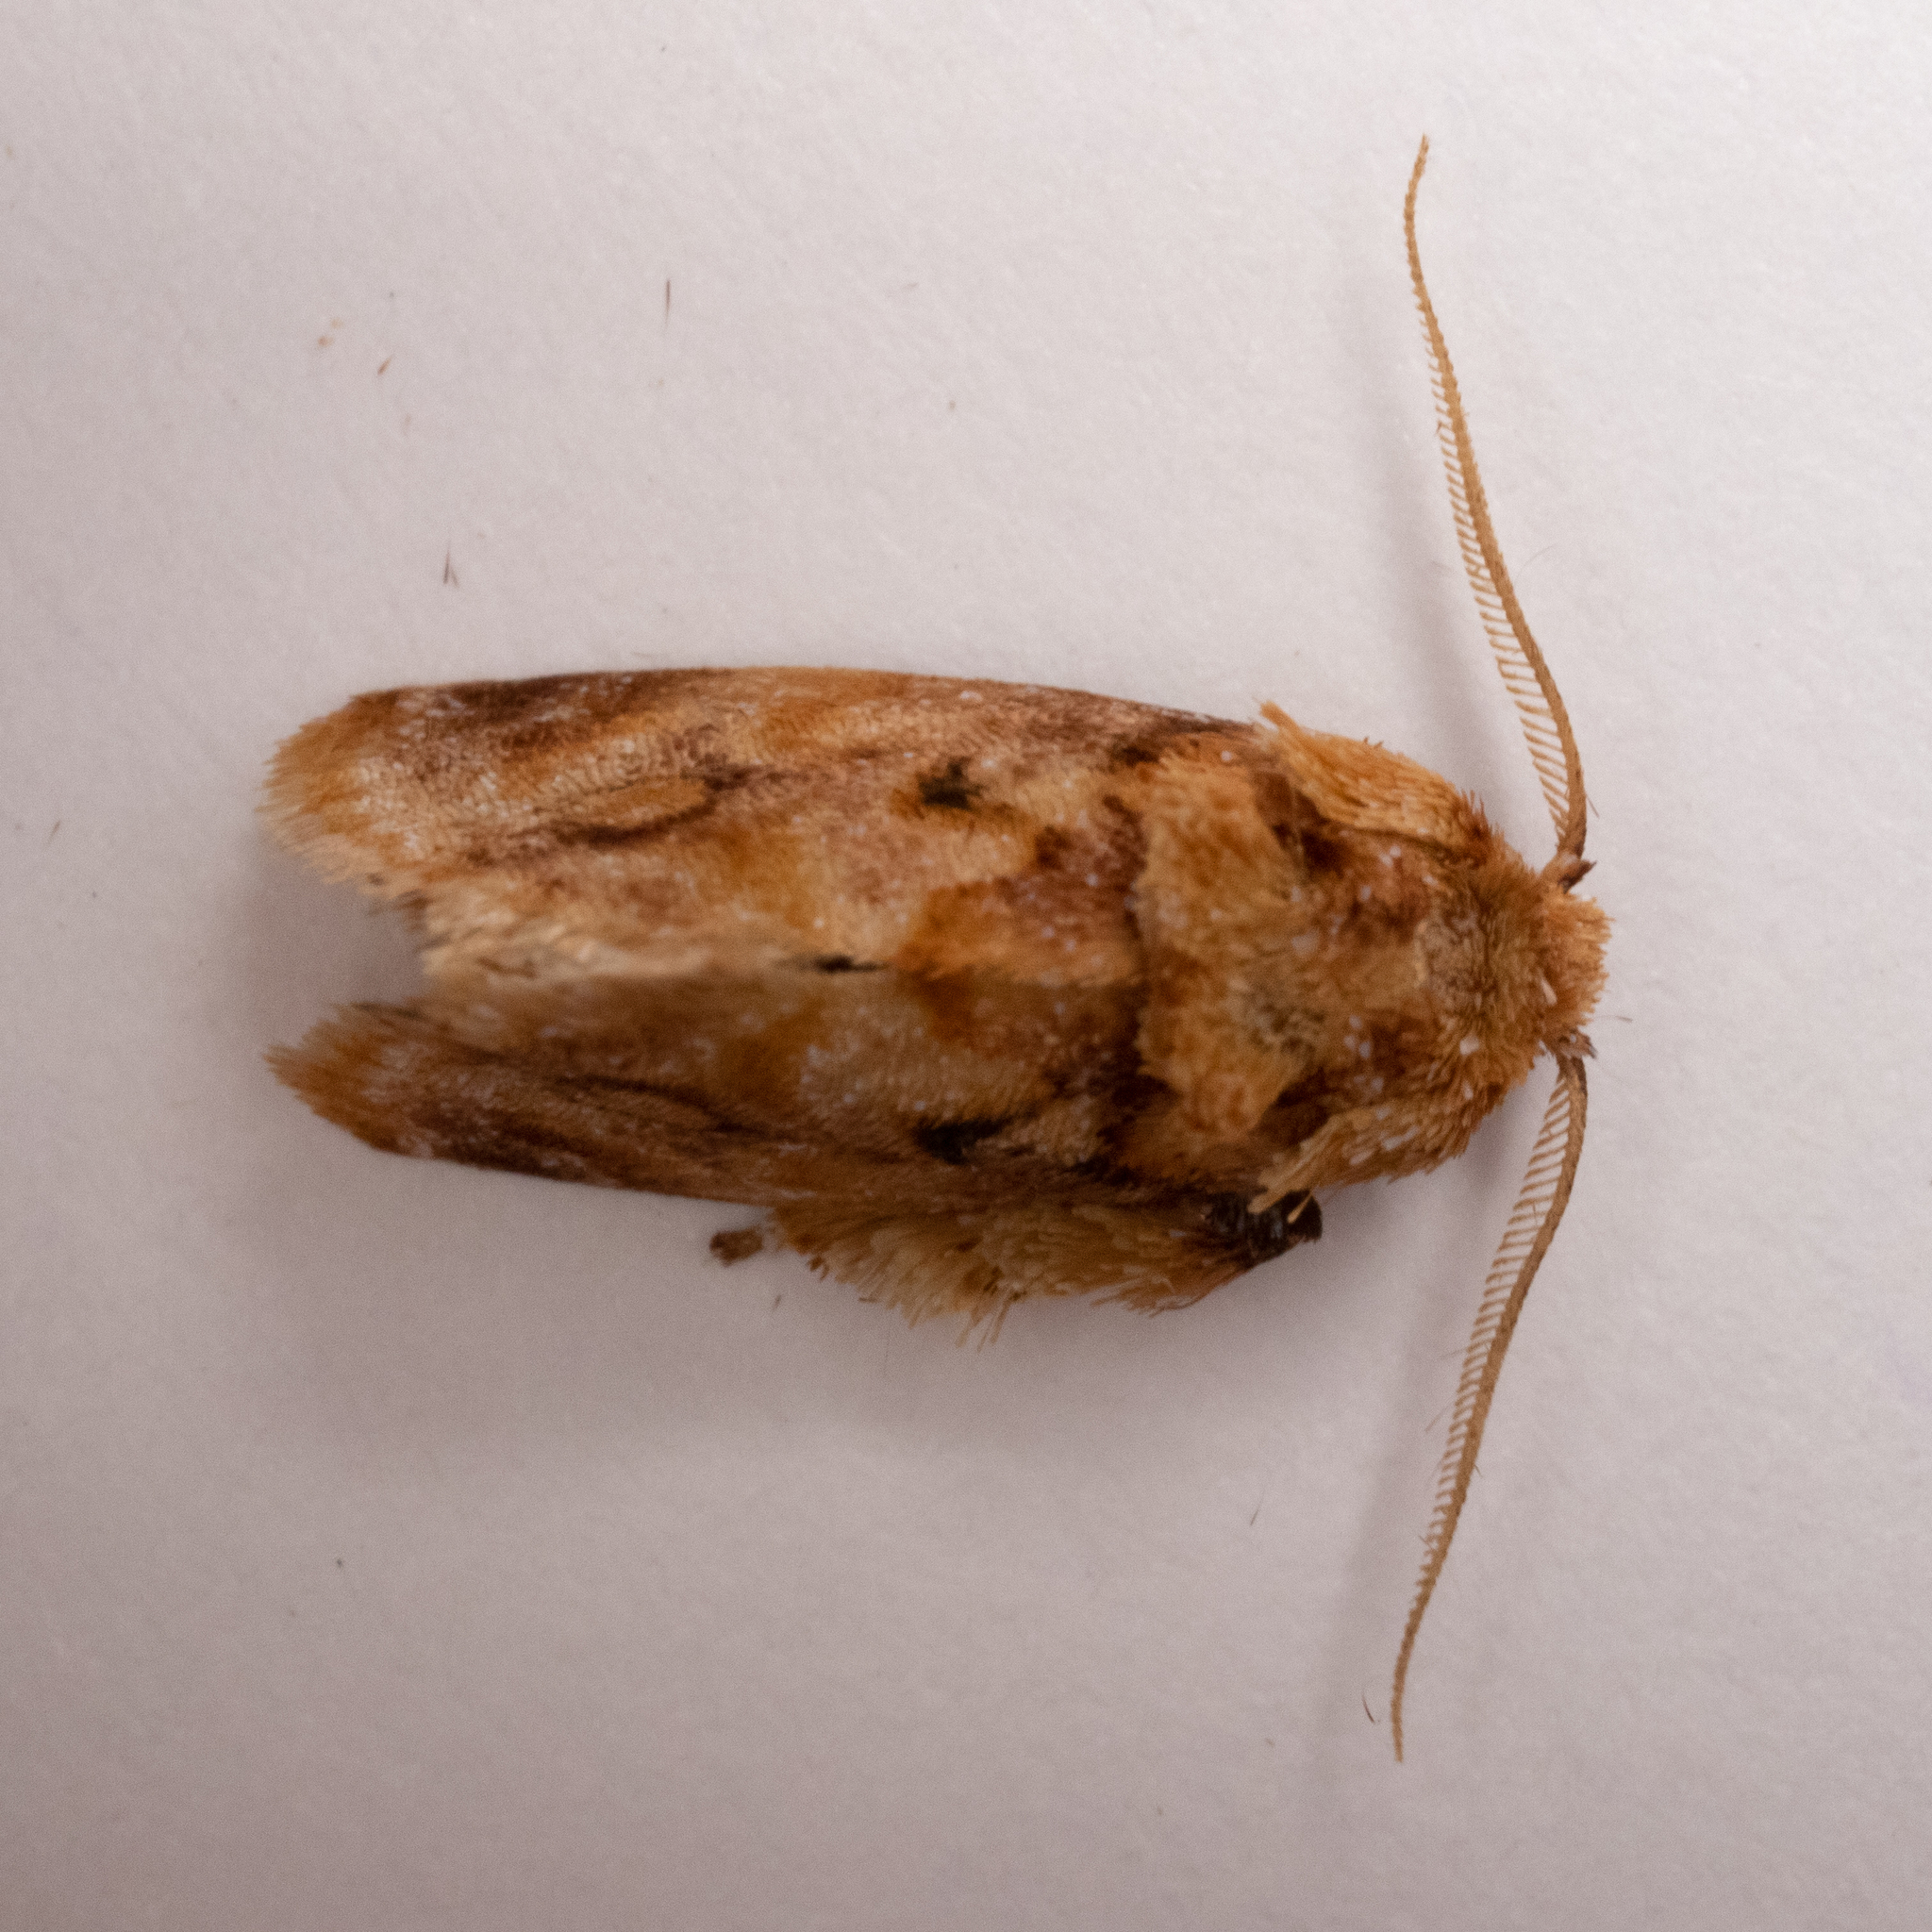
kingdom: Animalia
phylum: Arthropoda
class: Insecta
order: Lepidoptera
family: Limacodidae
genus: Isochaetes
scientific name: Isochaetes beutenmuelleri
